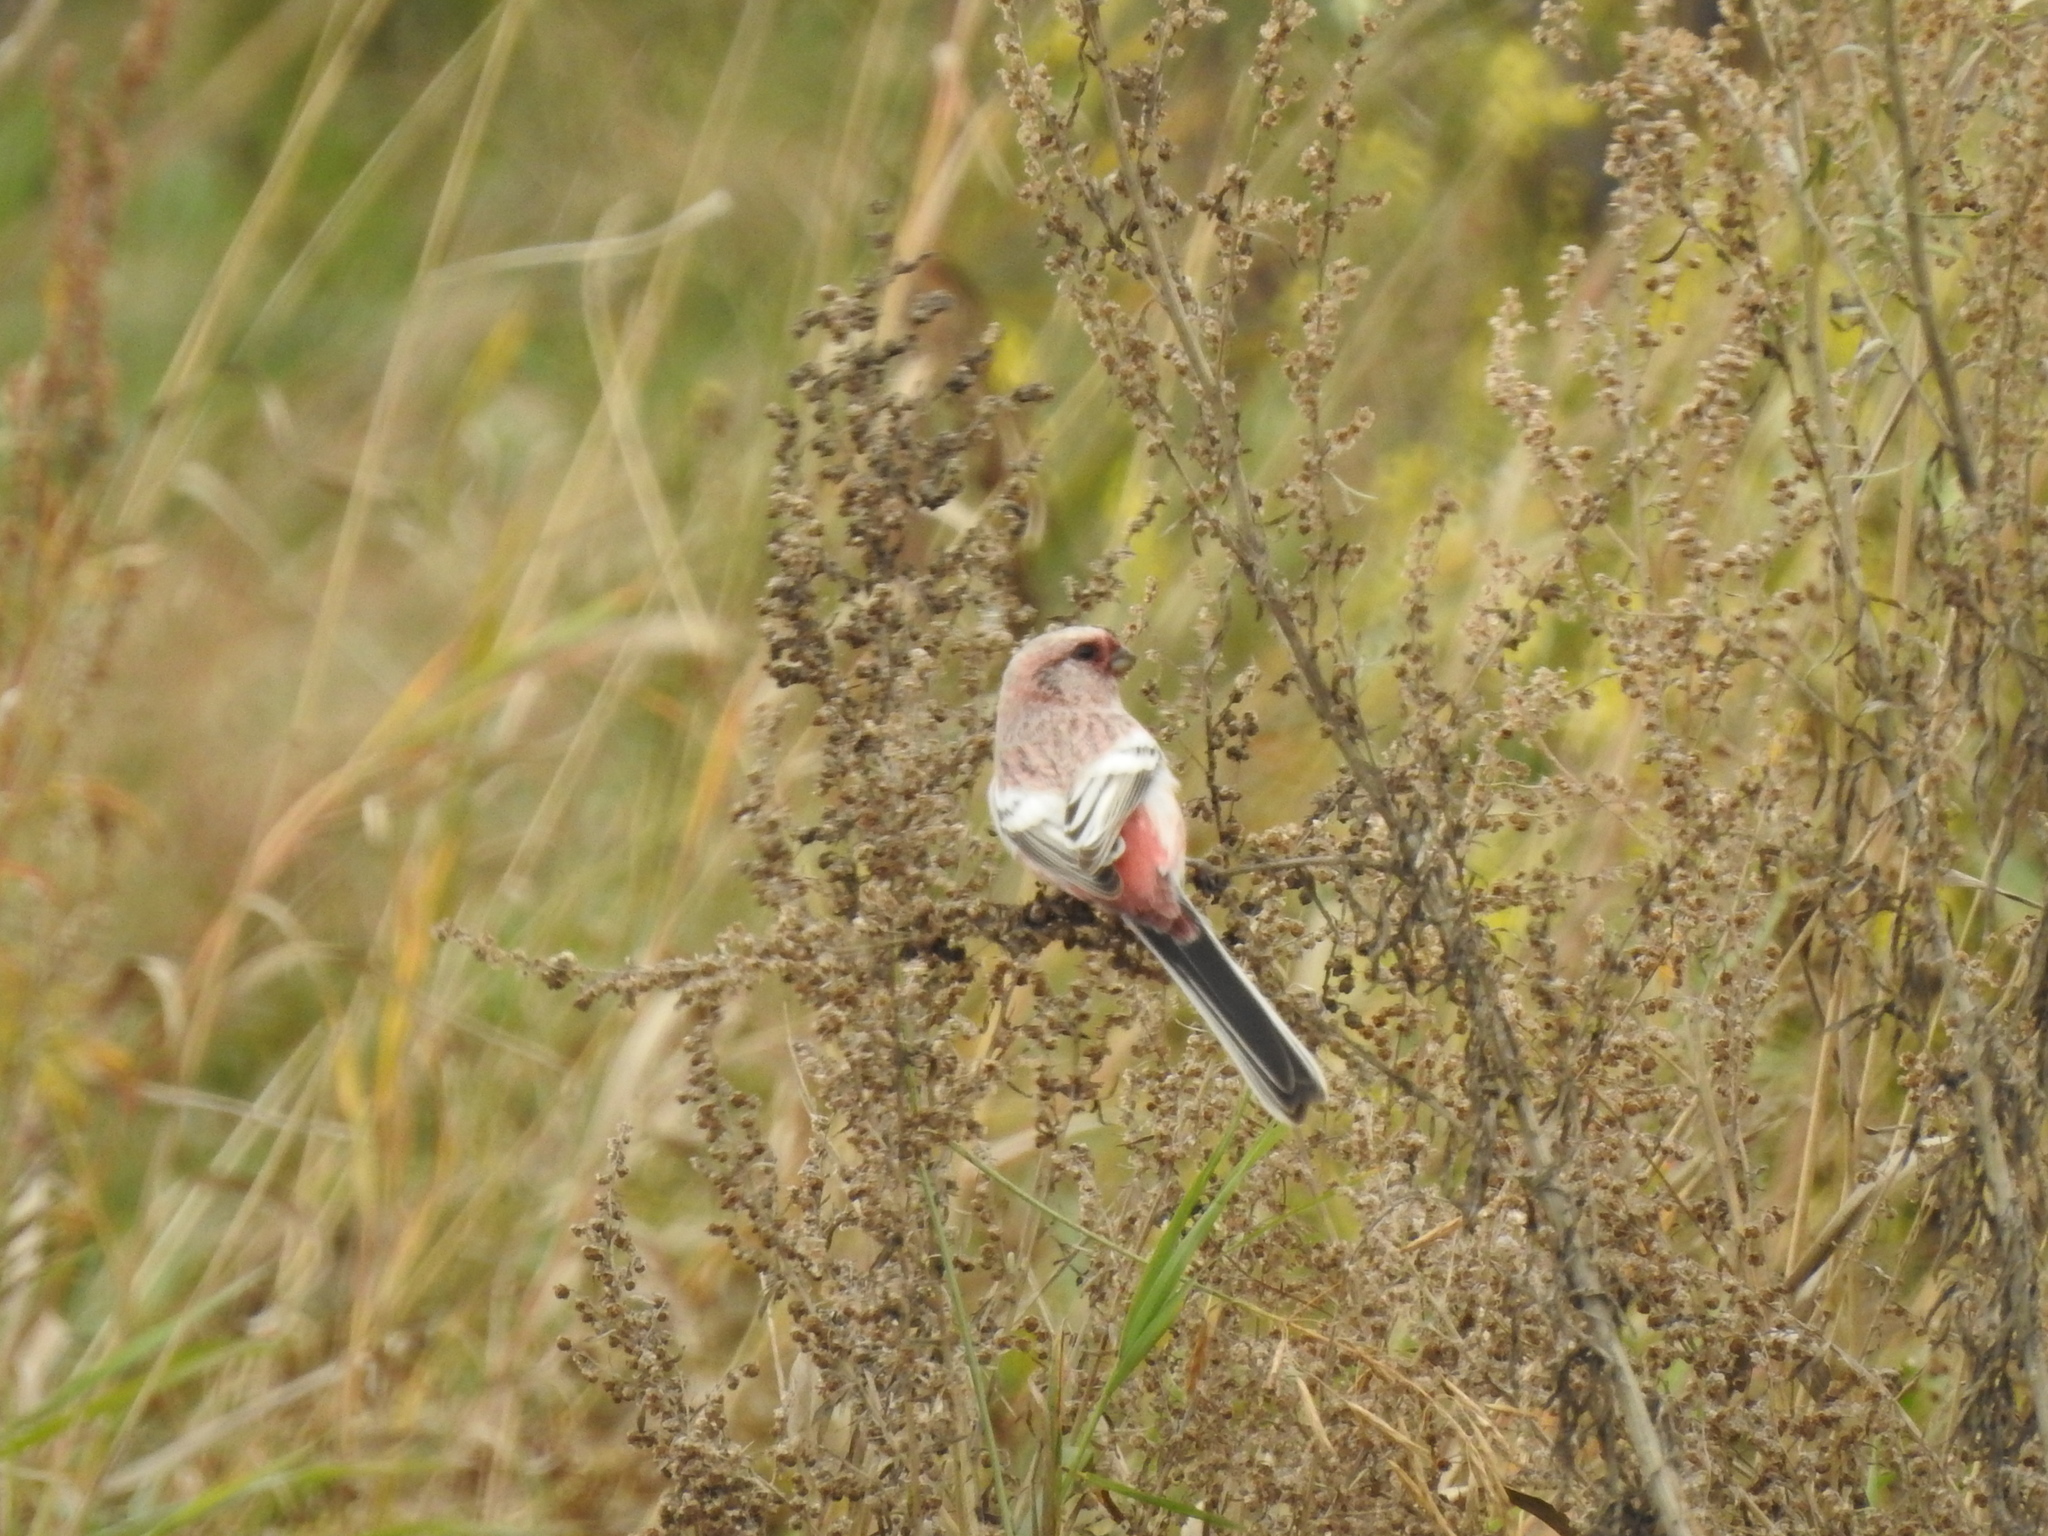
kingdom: Animalia
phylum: Chordata
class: Aves
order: Passeriformes
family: Fringillidae
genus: Carpodacus
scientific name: Carpodacus sibiricus
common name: Long-tailed rosefinch
